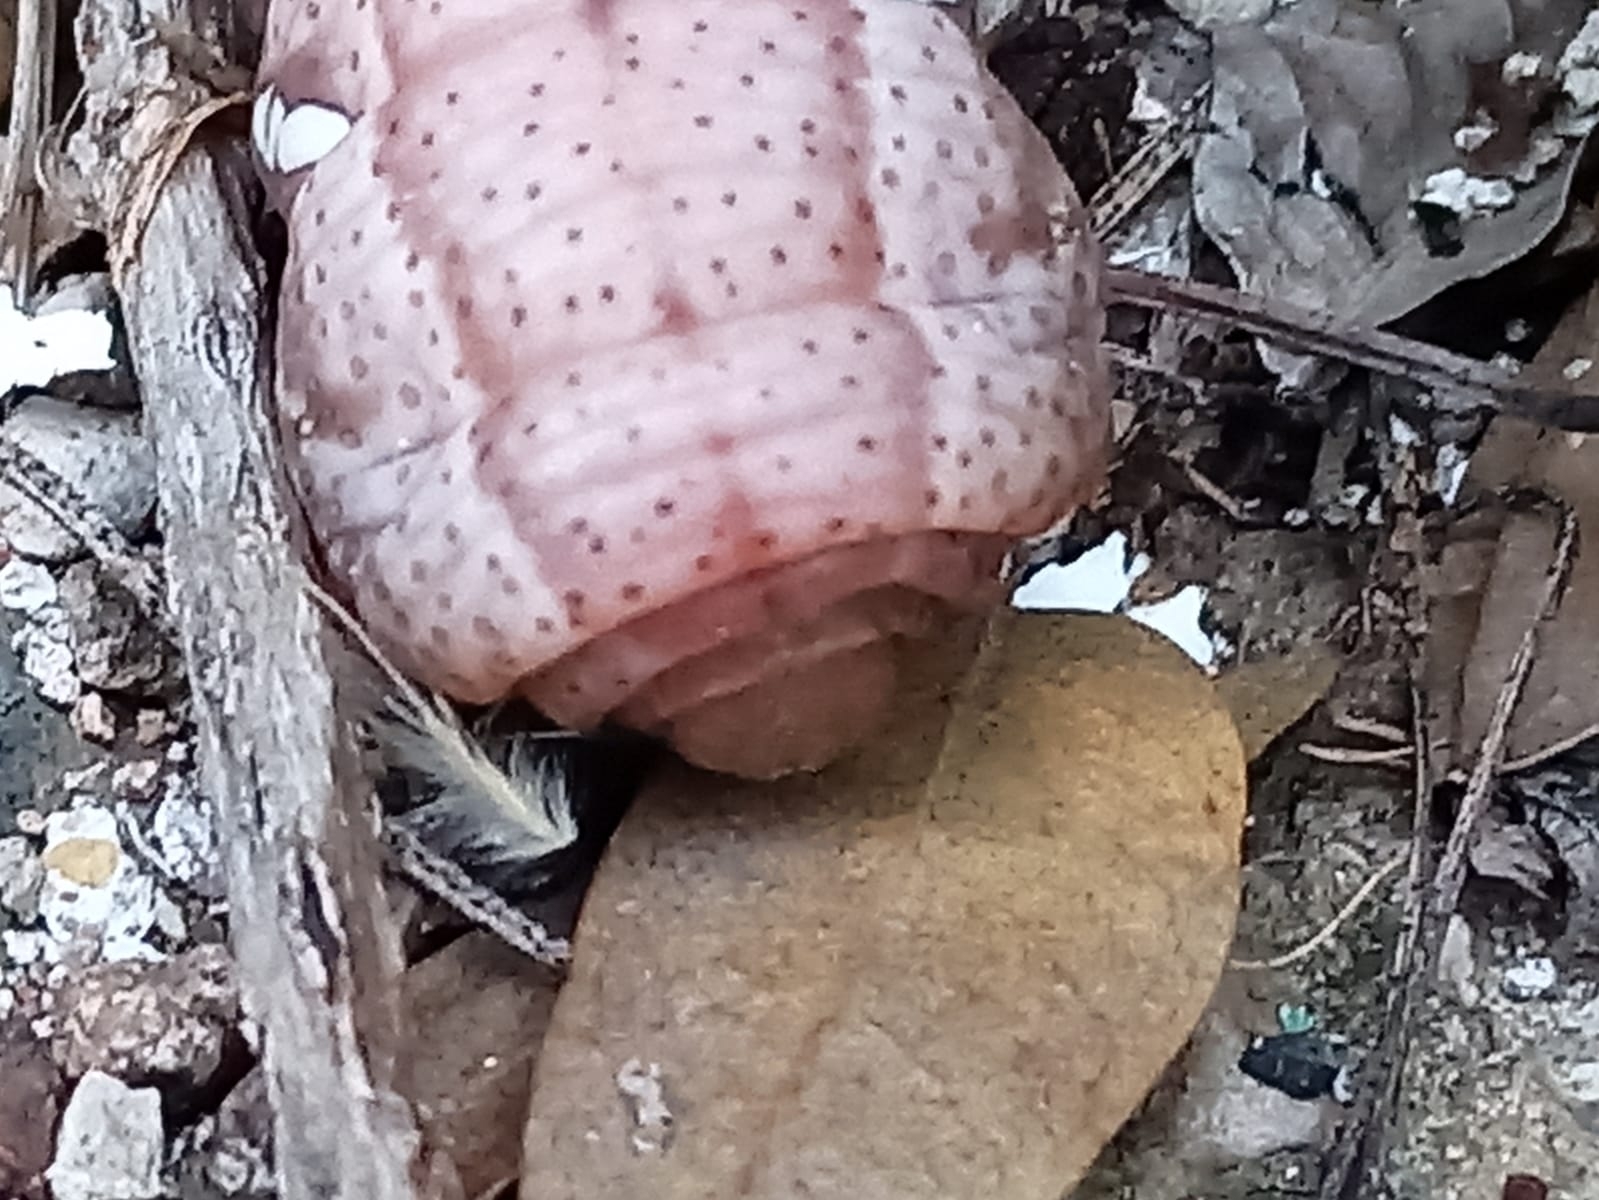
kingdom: Animalia
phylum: Arthropoda
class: Insecta
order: Lepidoptera
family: Sphingidae
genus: Eumorpha
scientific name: Eumorpha achemon
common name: Achemon sphinx
